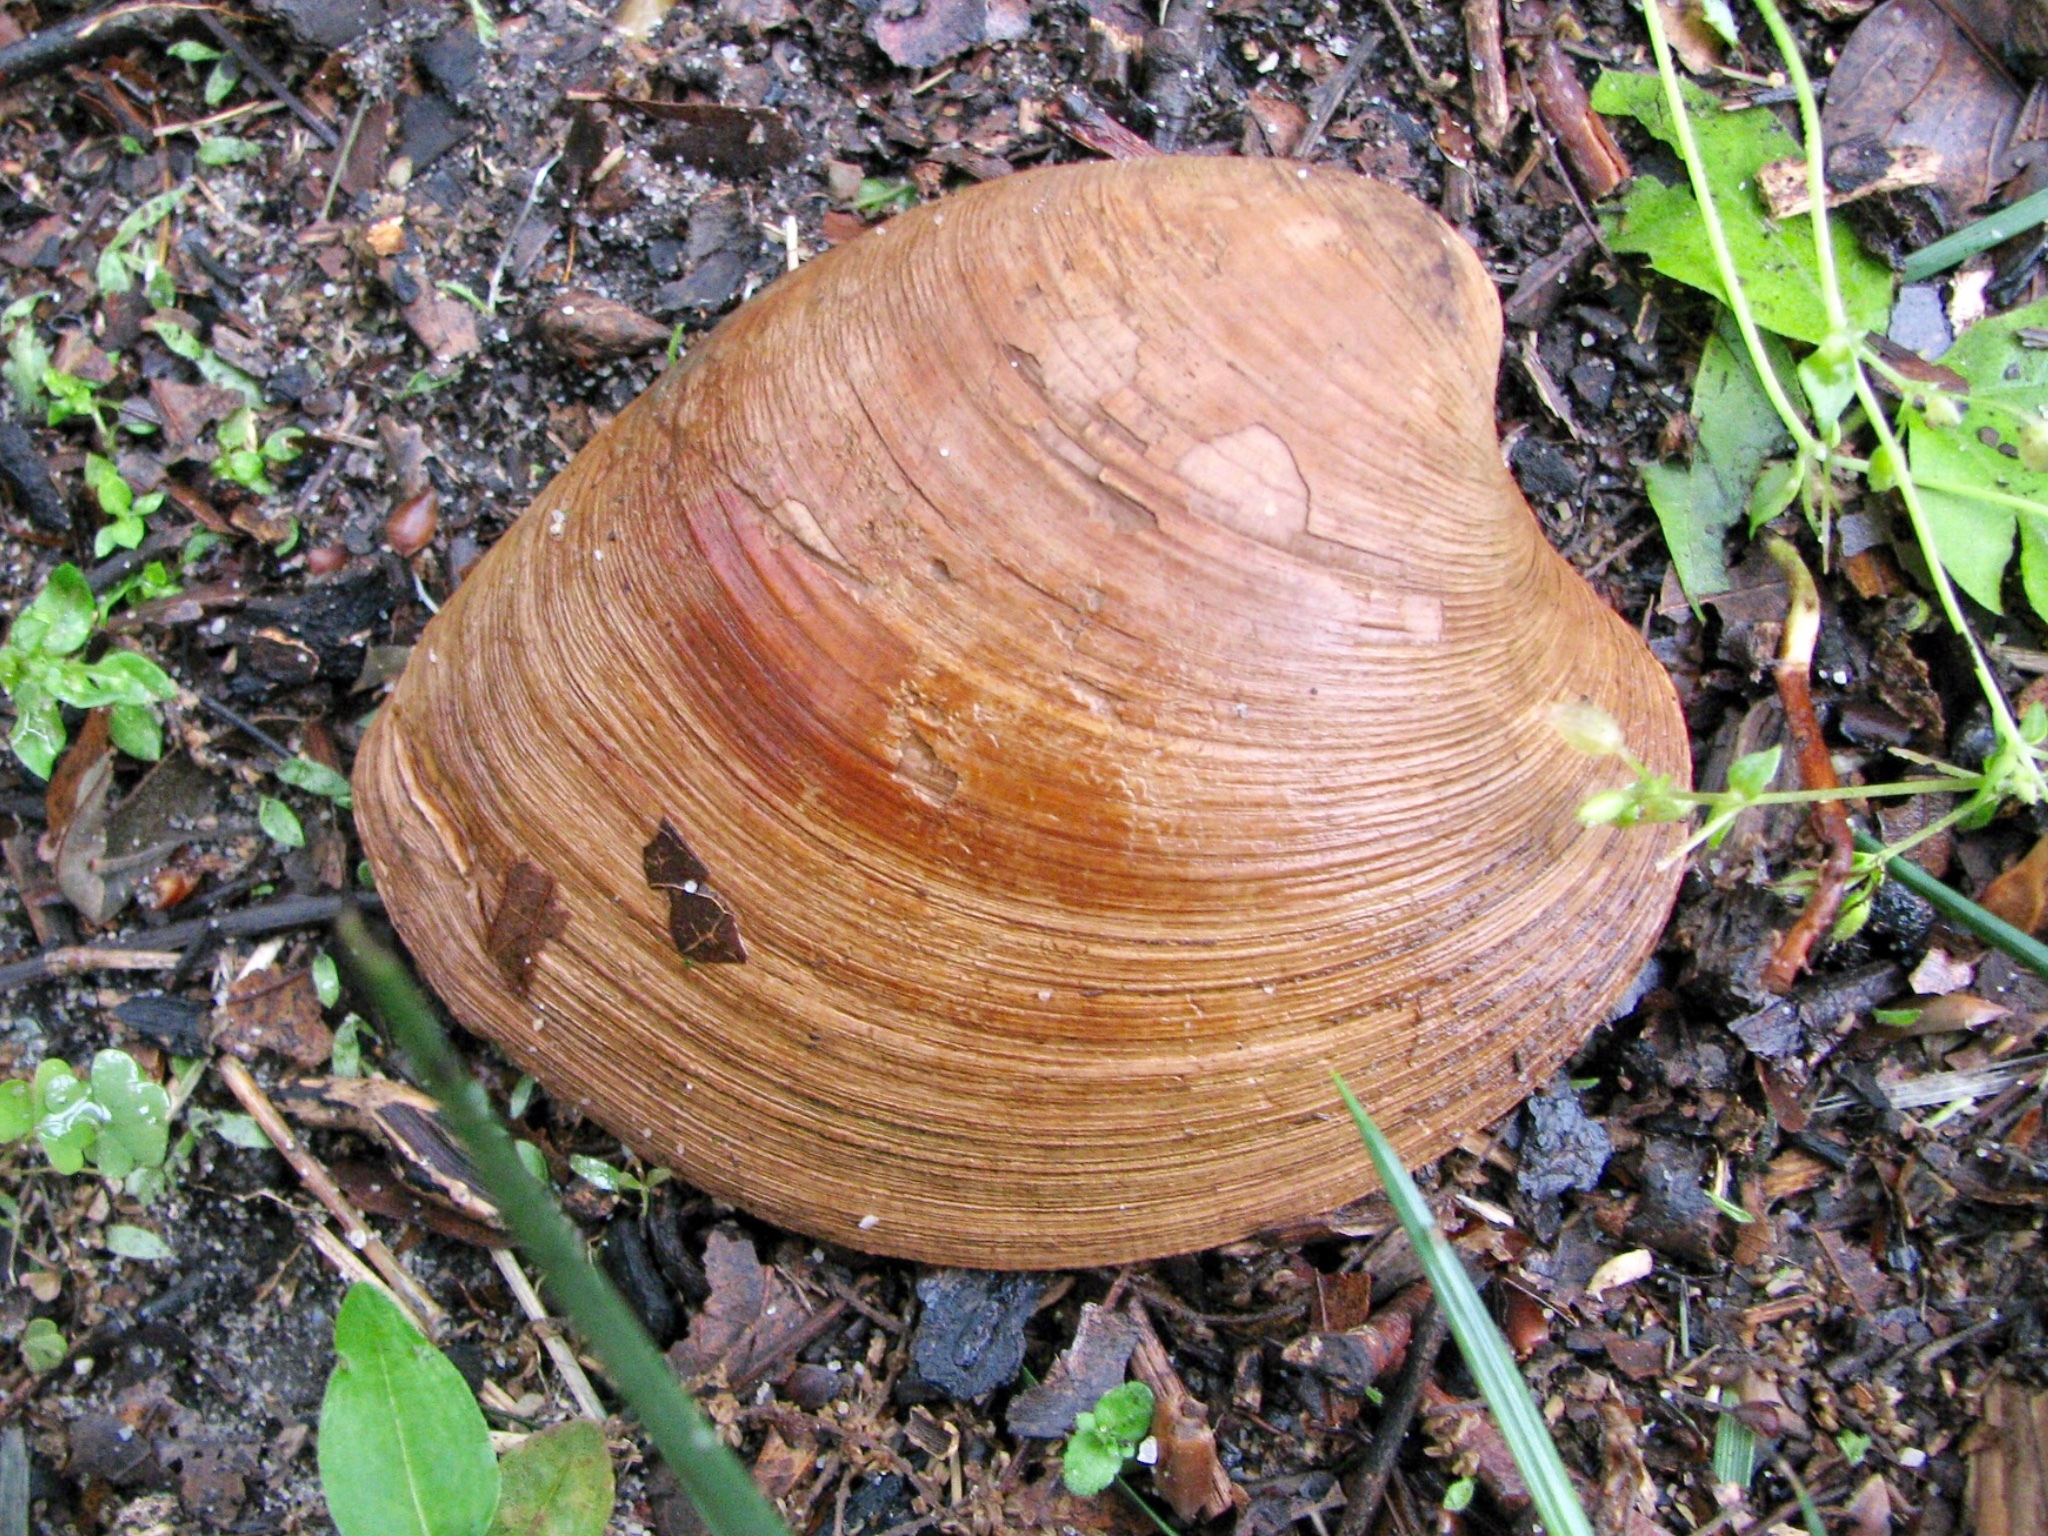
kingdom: Animalia
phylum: Mollusca
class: Bivalvia
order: Venerida
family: Veneridae
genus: Mercenaria
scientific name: Mercenaria mercenaria
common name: American hard-shelled clam
